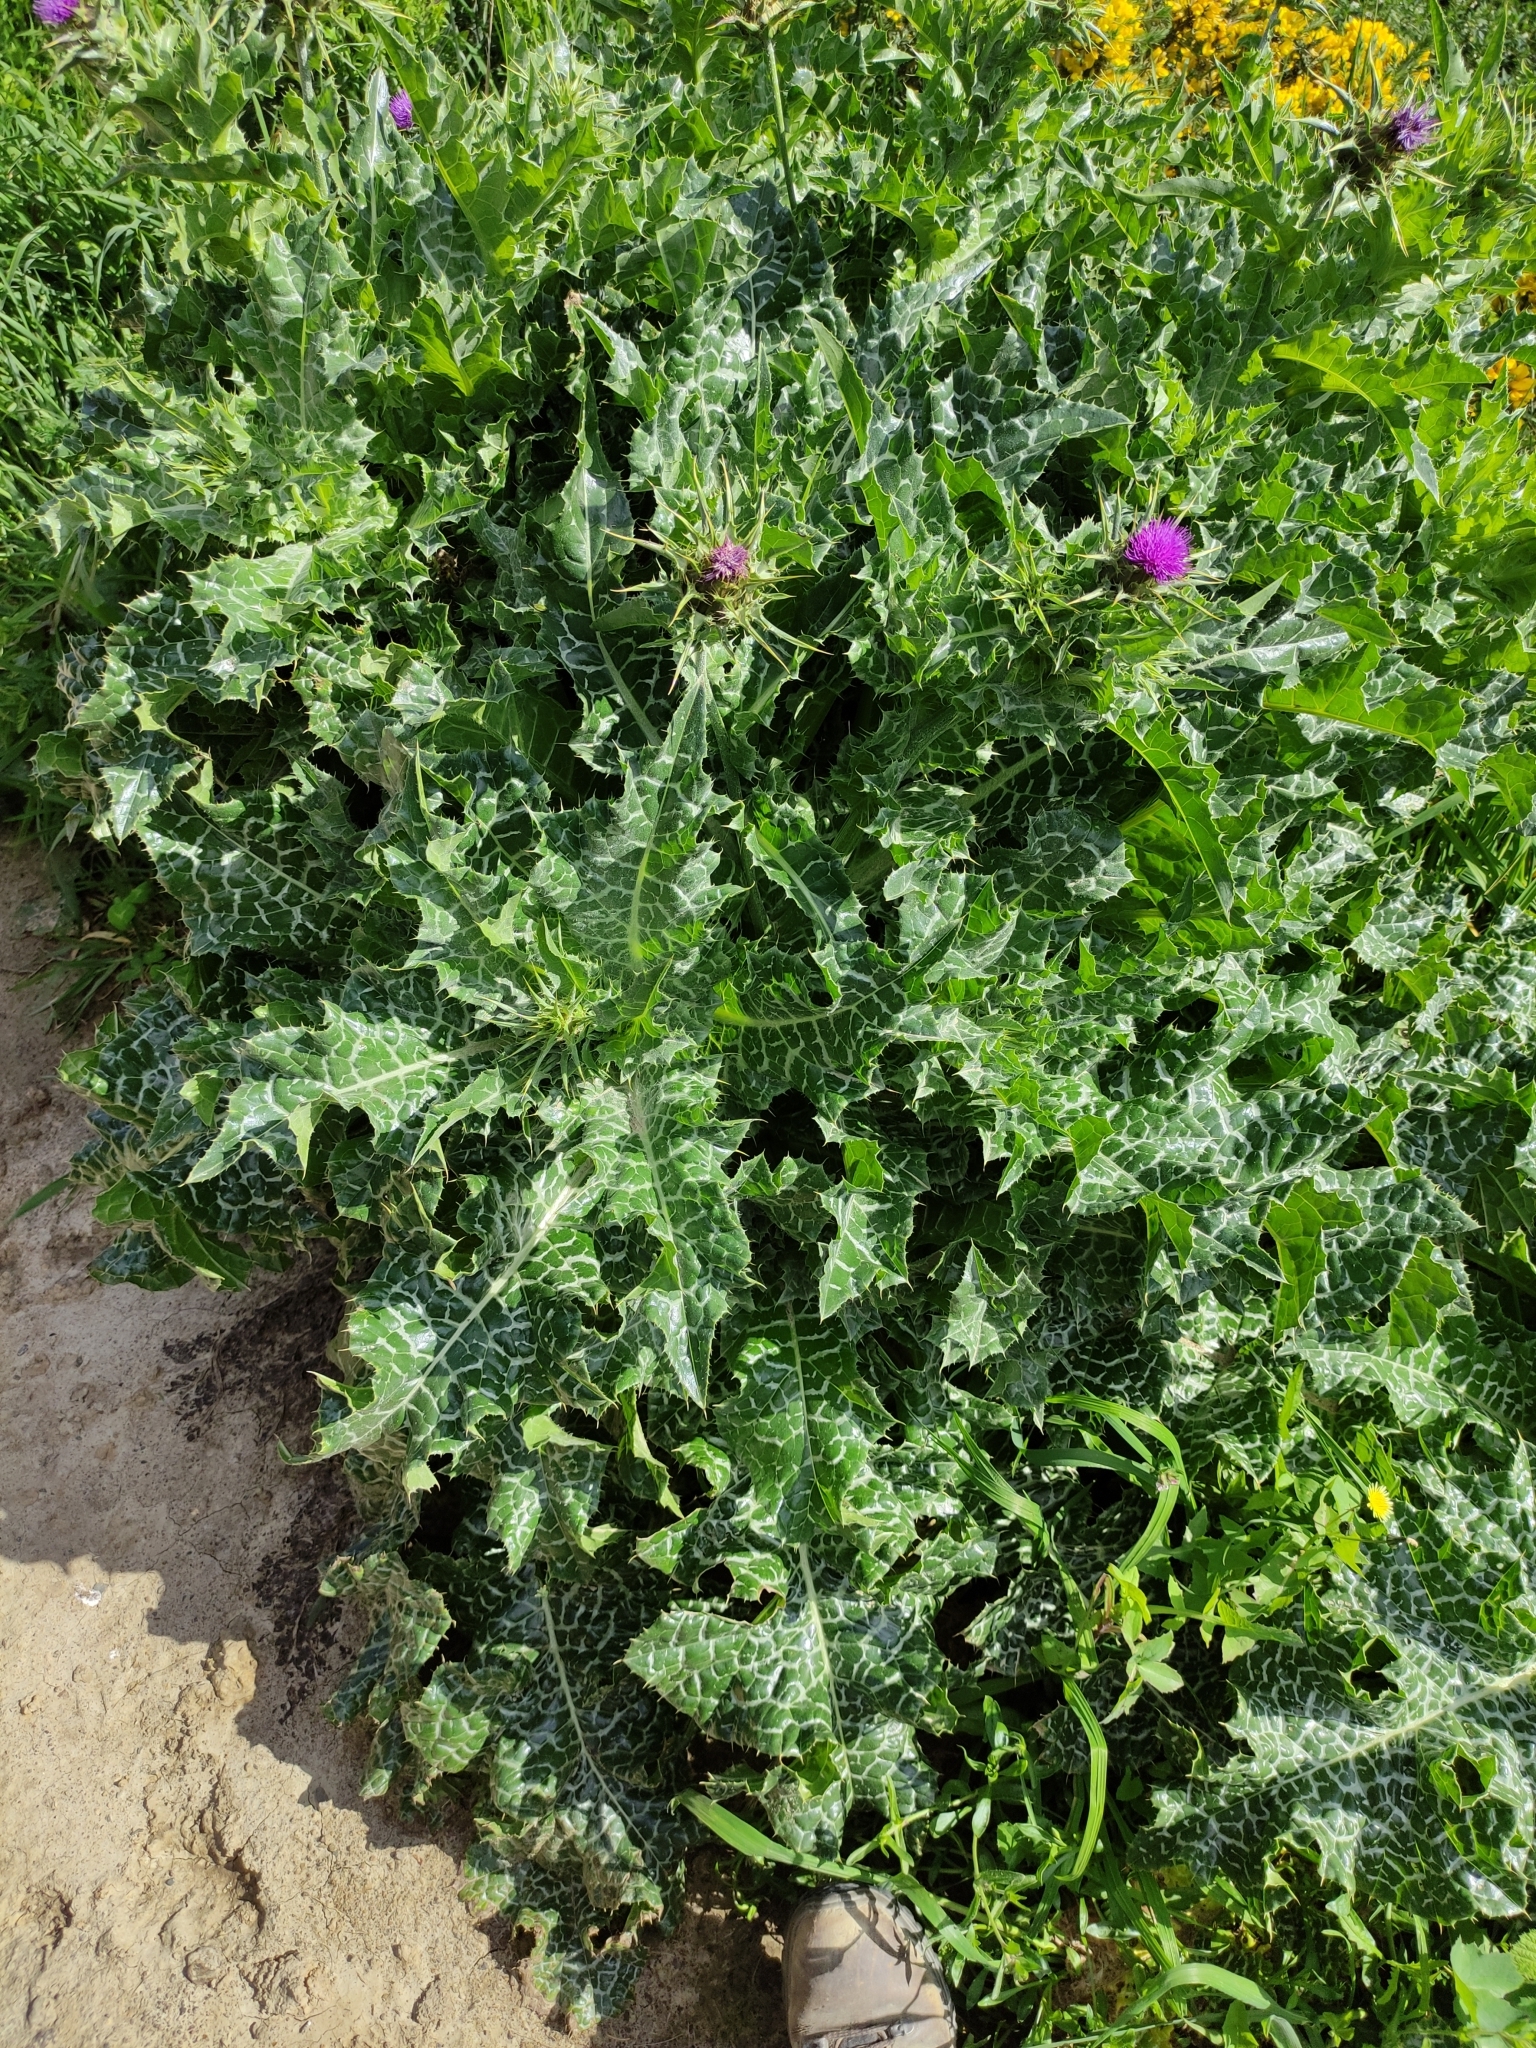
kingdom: Plantae
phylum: Tracheophyta
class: Magnoliopsida
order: Asterales
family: Asteraceae
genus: Silybum
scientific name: Silybum marianum
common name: Milk thistle
